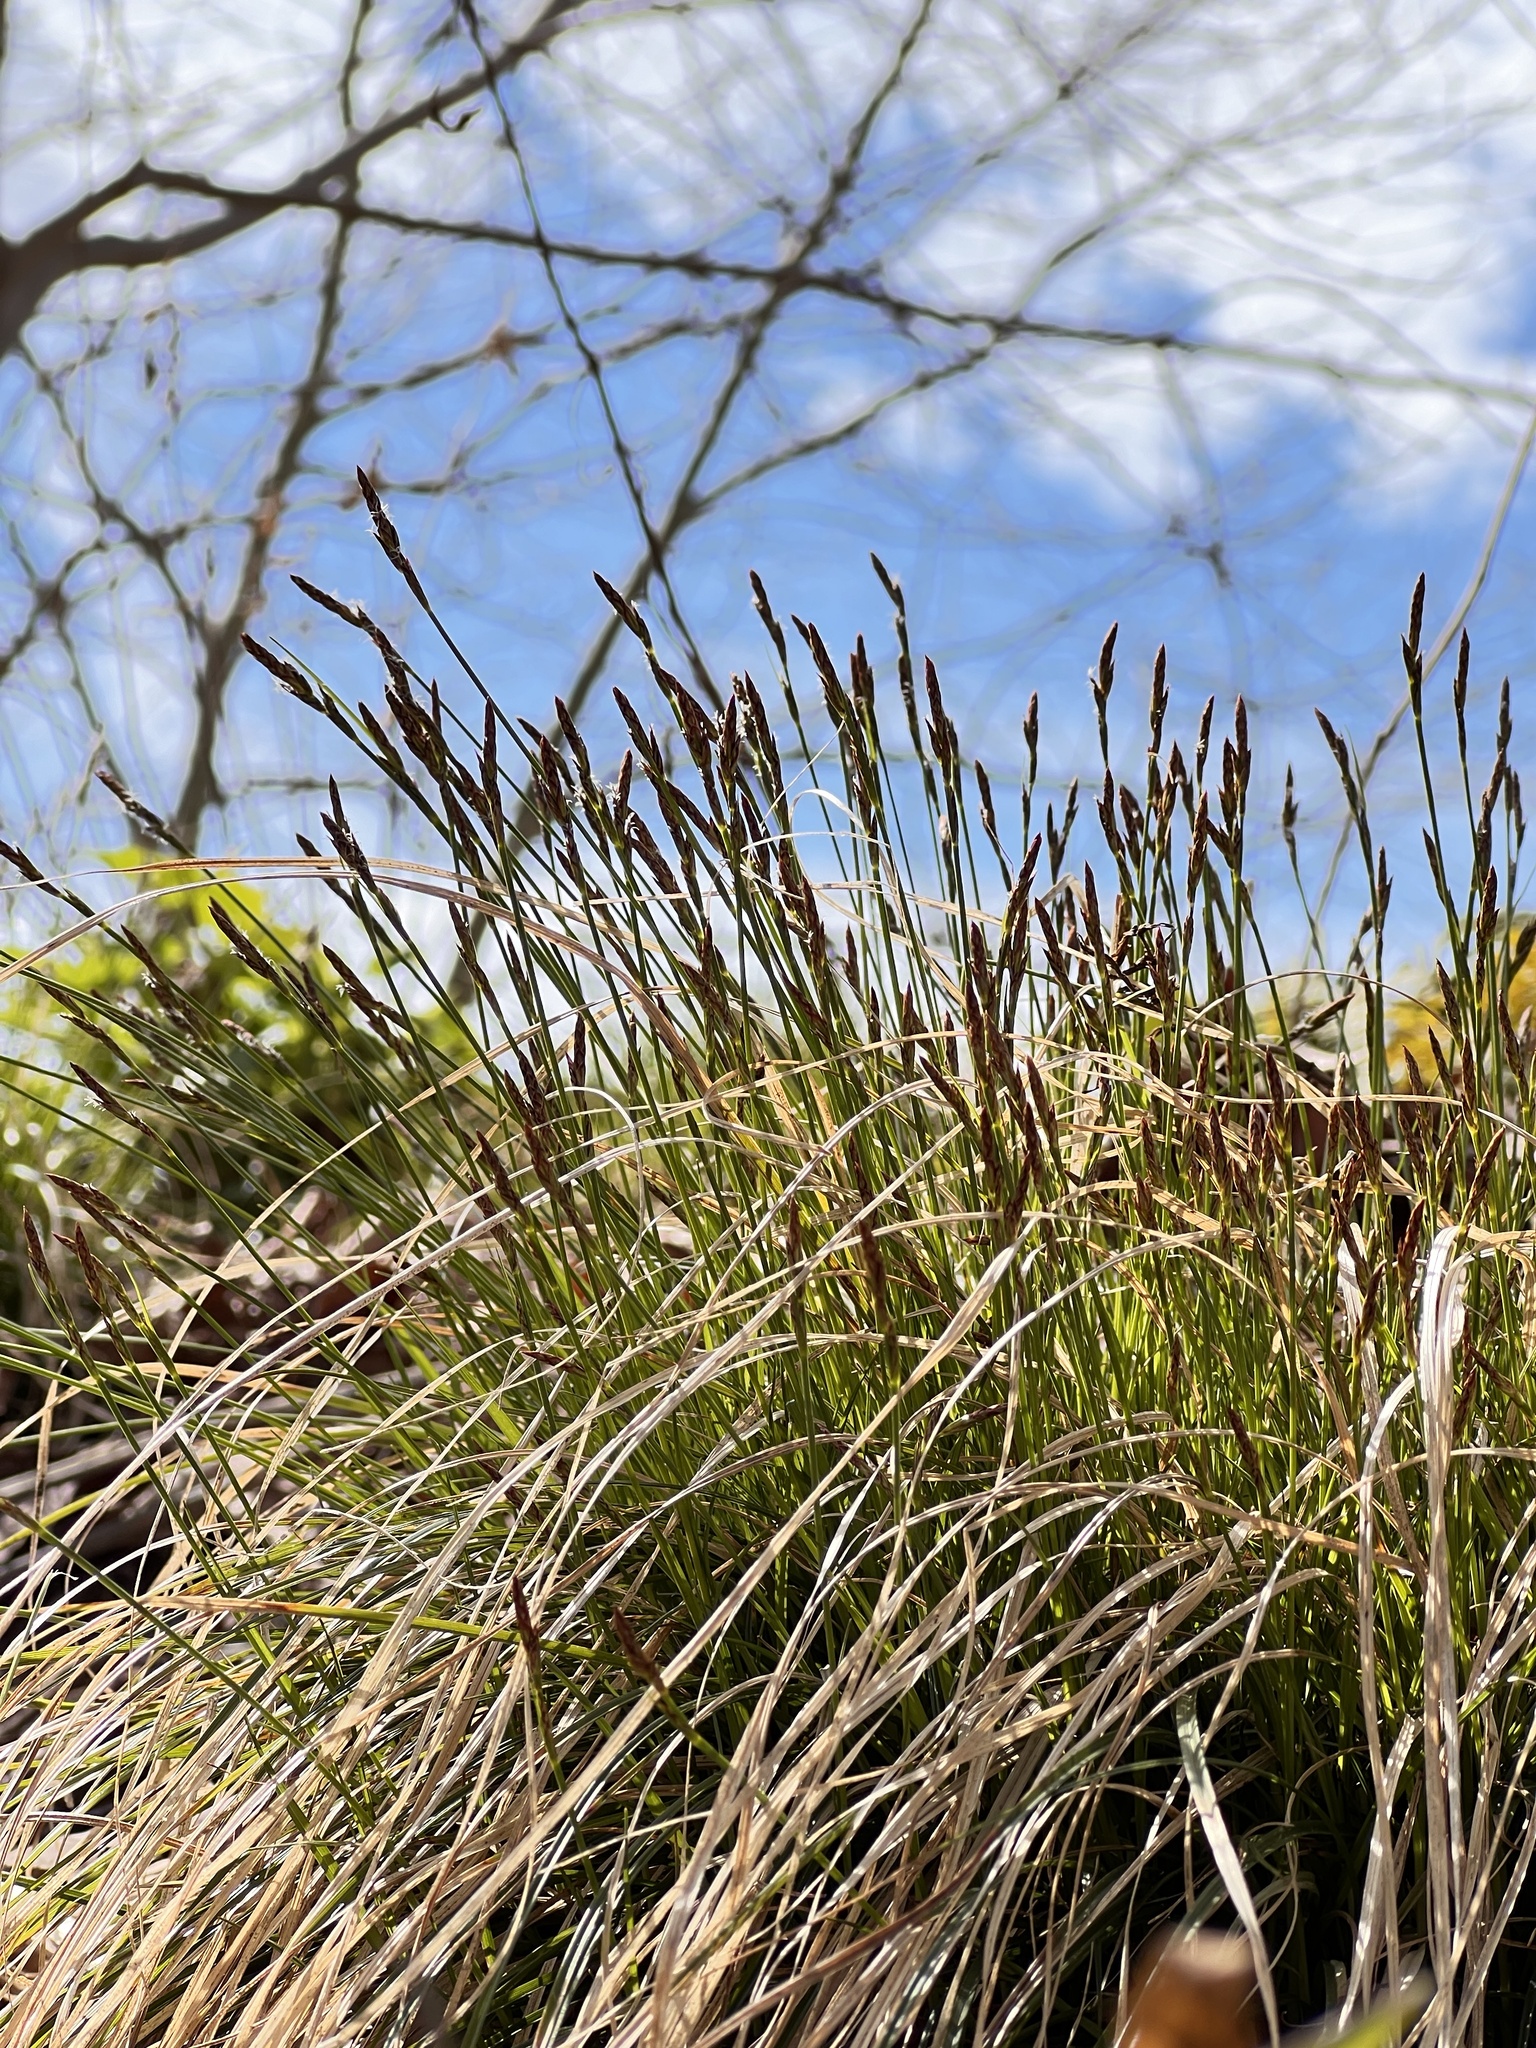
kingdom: Plantae
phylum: Tracheophyta
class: Liliopsida
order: Poales
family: Cyperaceae
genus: Carex
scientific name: Carex albicans
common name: Bellow-beaked sedge
